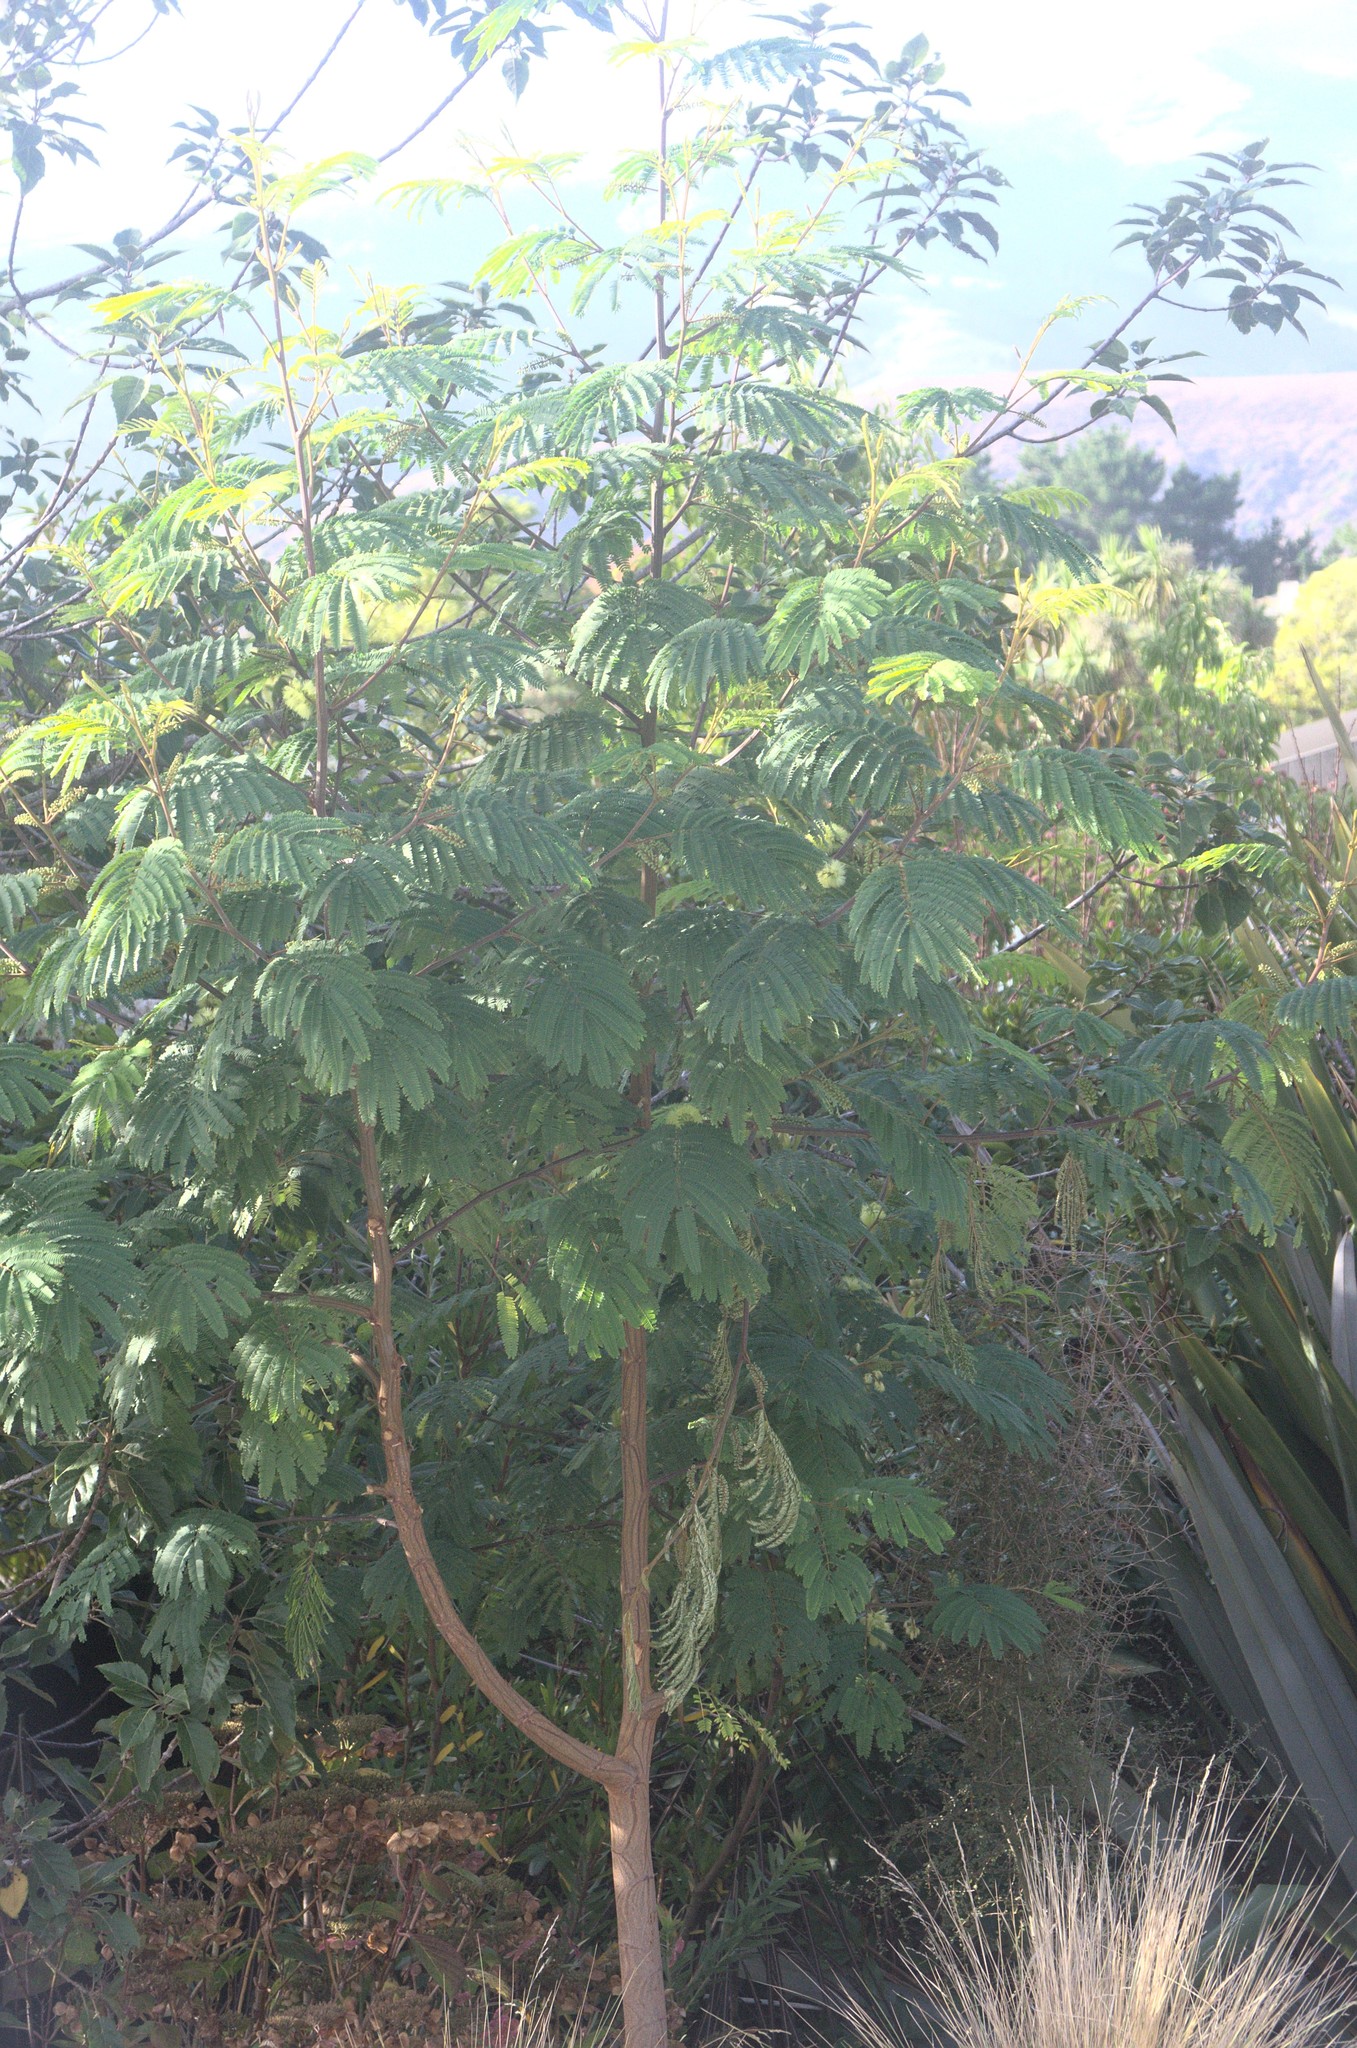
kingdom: Plantae
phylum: Tracheophyta
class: Magnoliopsida
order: Fabales
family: Fabaceae
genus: Paraserianthes
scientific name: Paraserianthes lophantha
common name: Plume albizia
